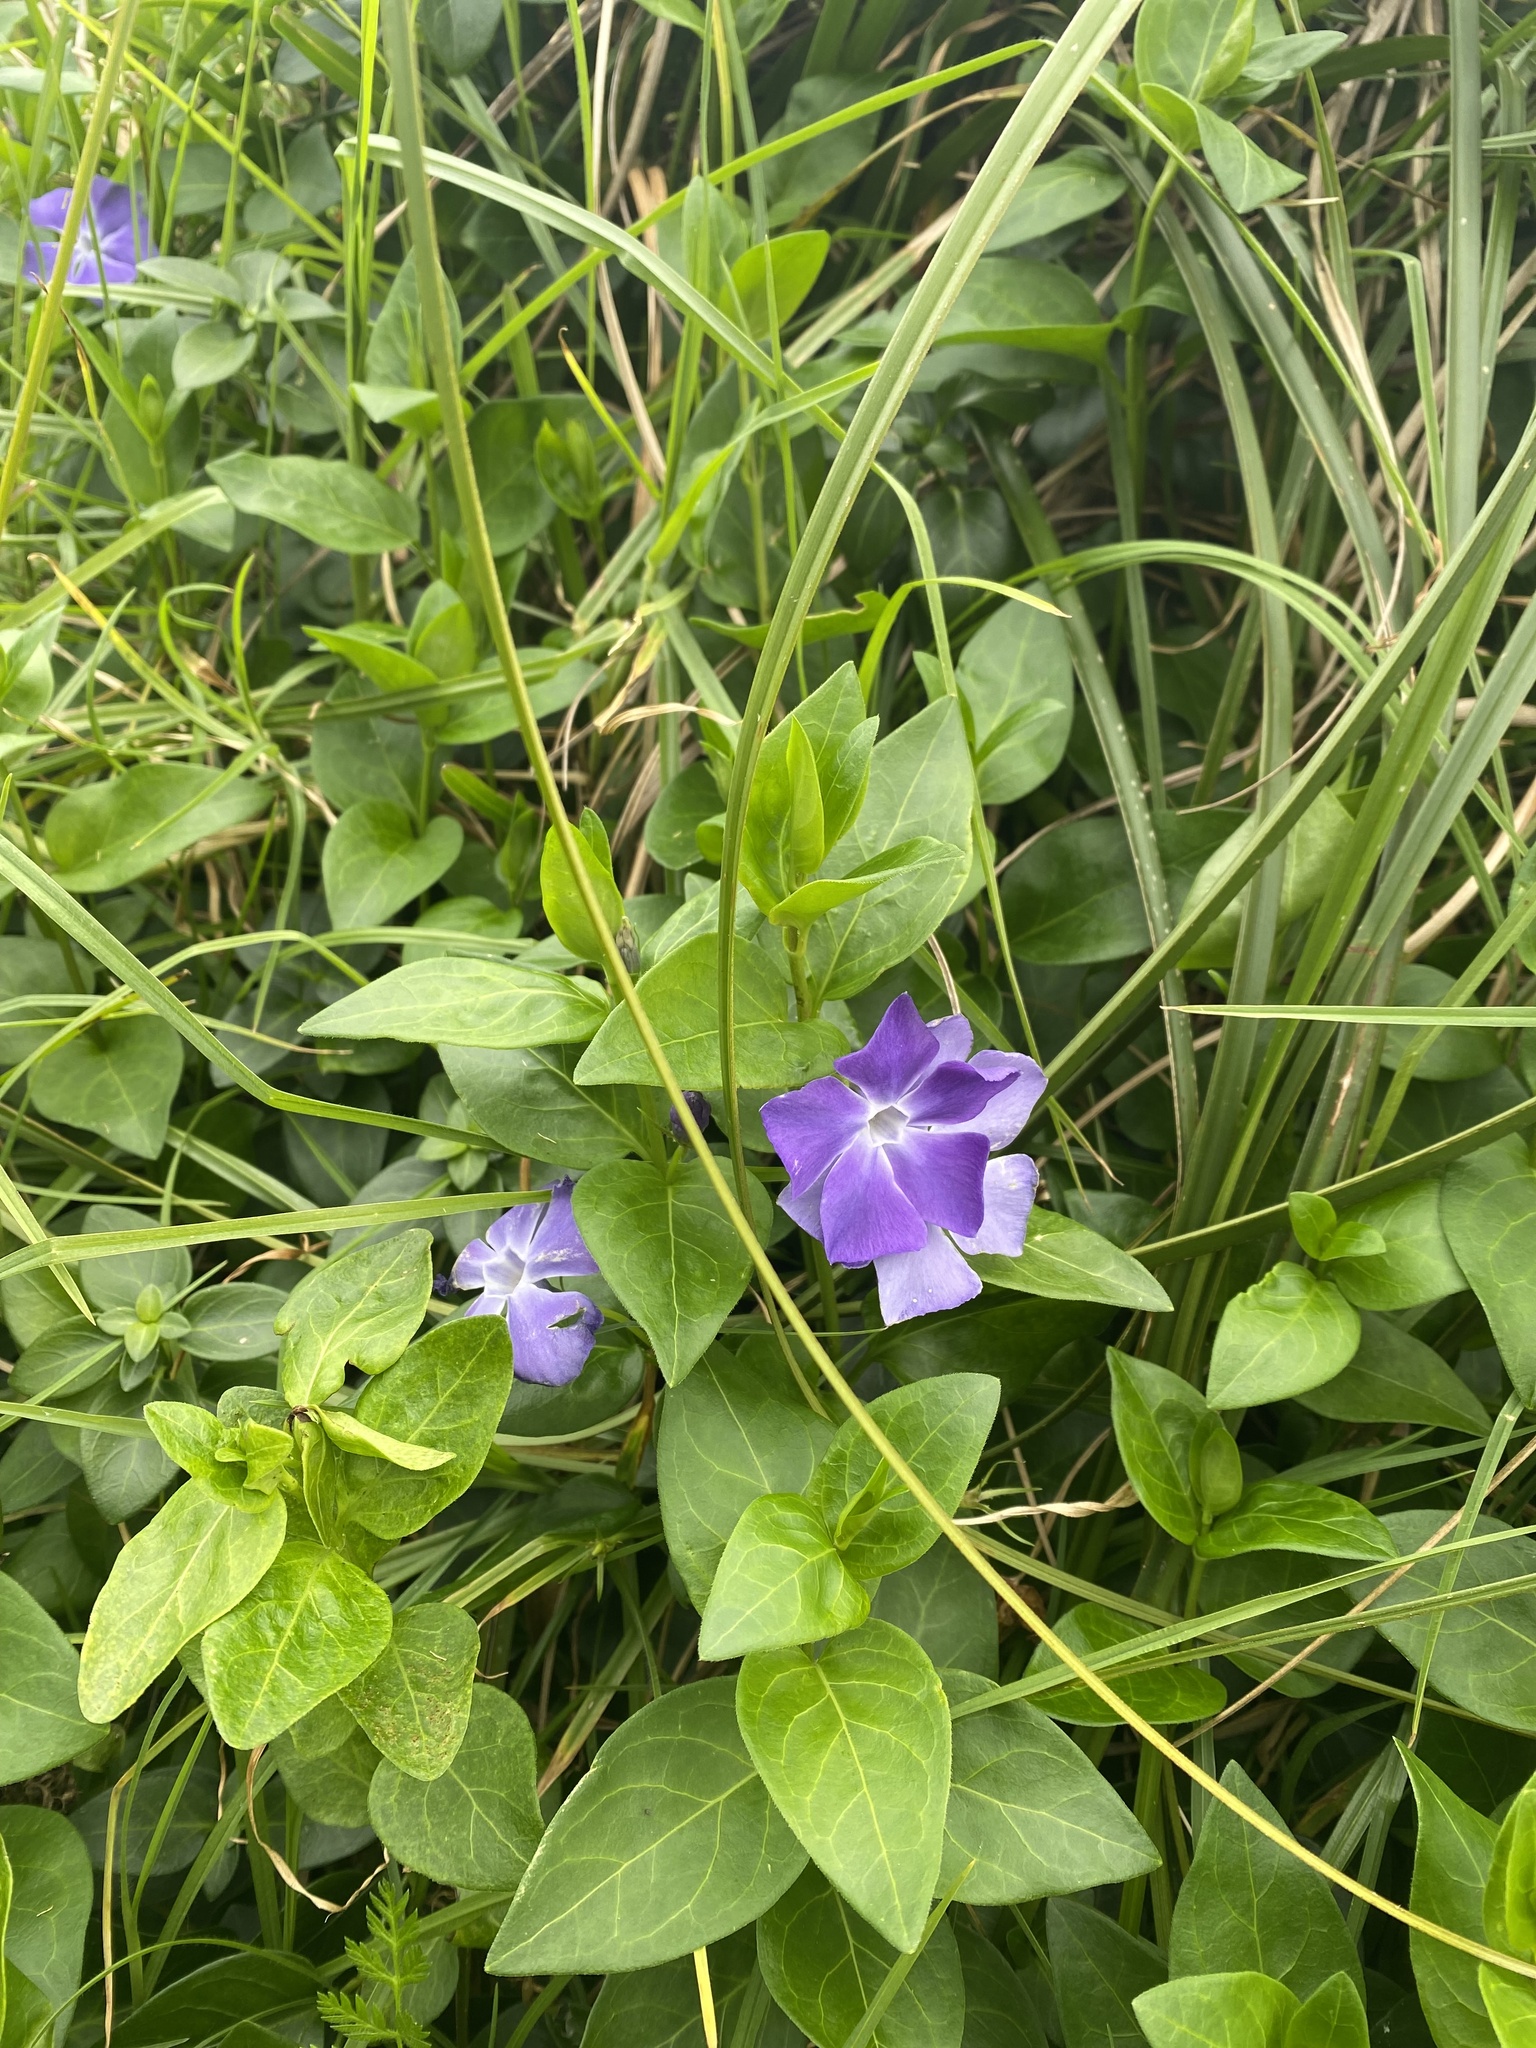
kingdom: Plantae
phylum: Tracheophyta
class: Magnoliopsida
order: Gentianales
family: Apocynaceae
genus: Vinca
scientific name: Vinca major
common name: Greater periwinkle
